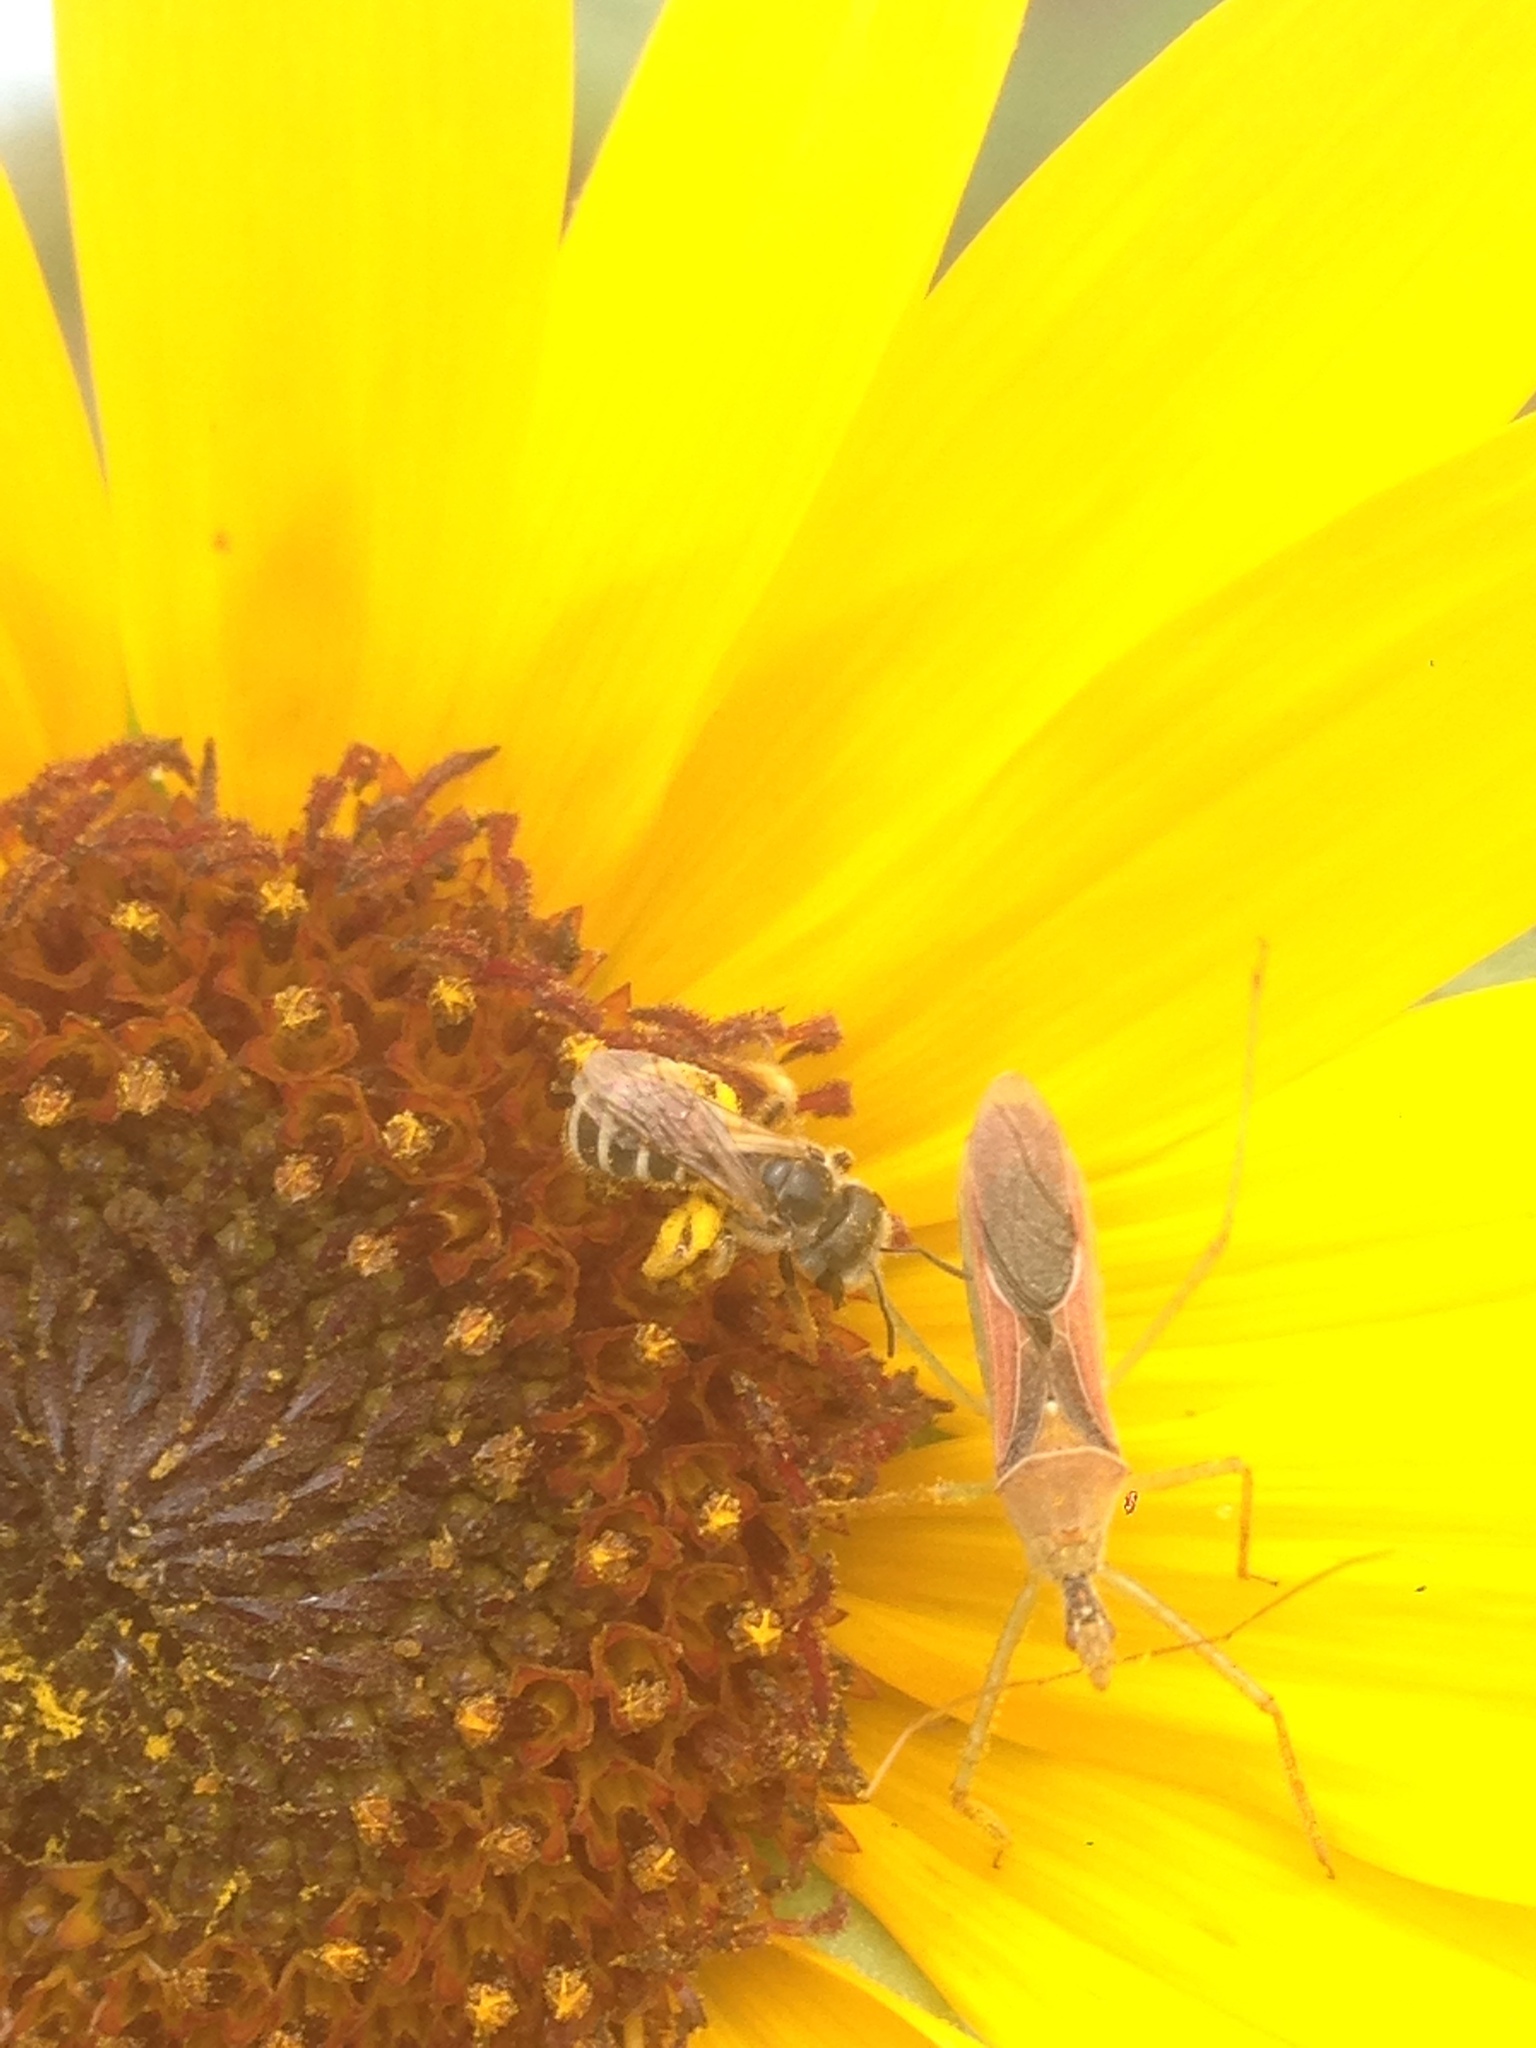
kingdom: Animalia
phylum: Arthropoda
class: Insecta
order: Hymenoptera
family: Halictidae
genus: Halictus
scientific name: Halictus ligatus
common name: Ligated furrow bee
